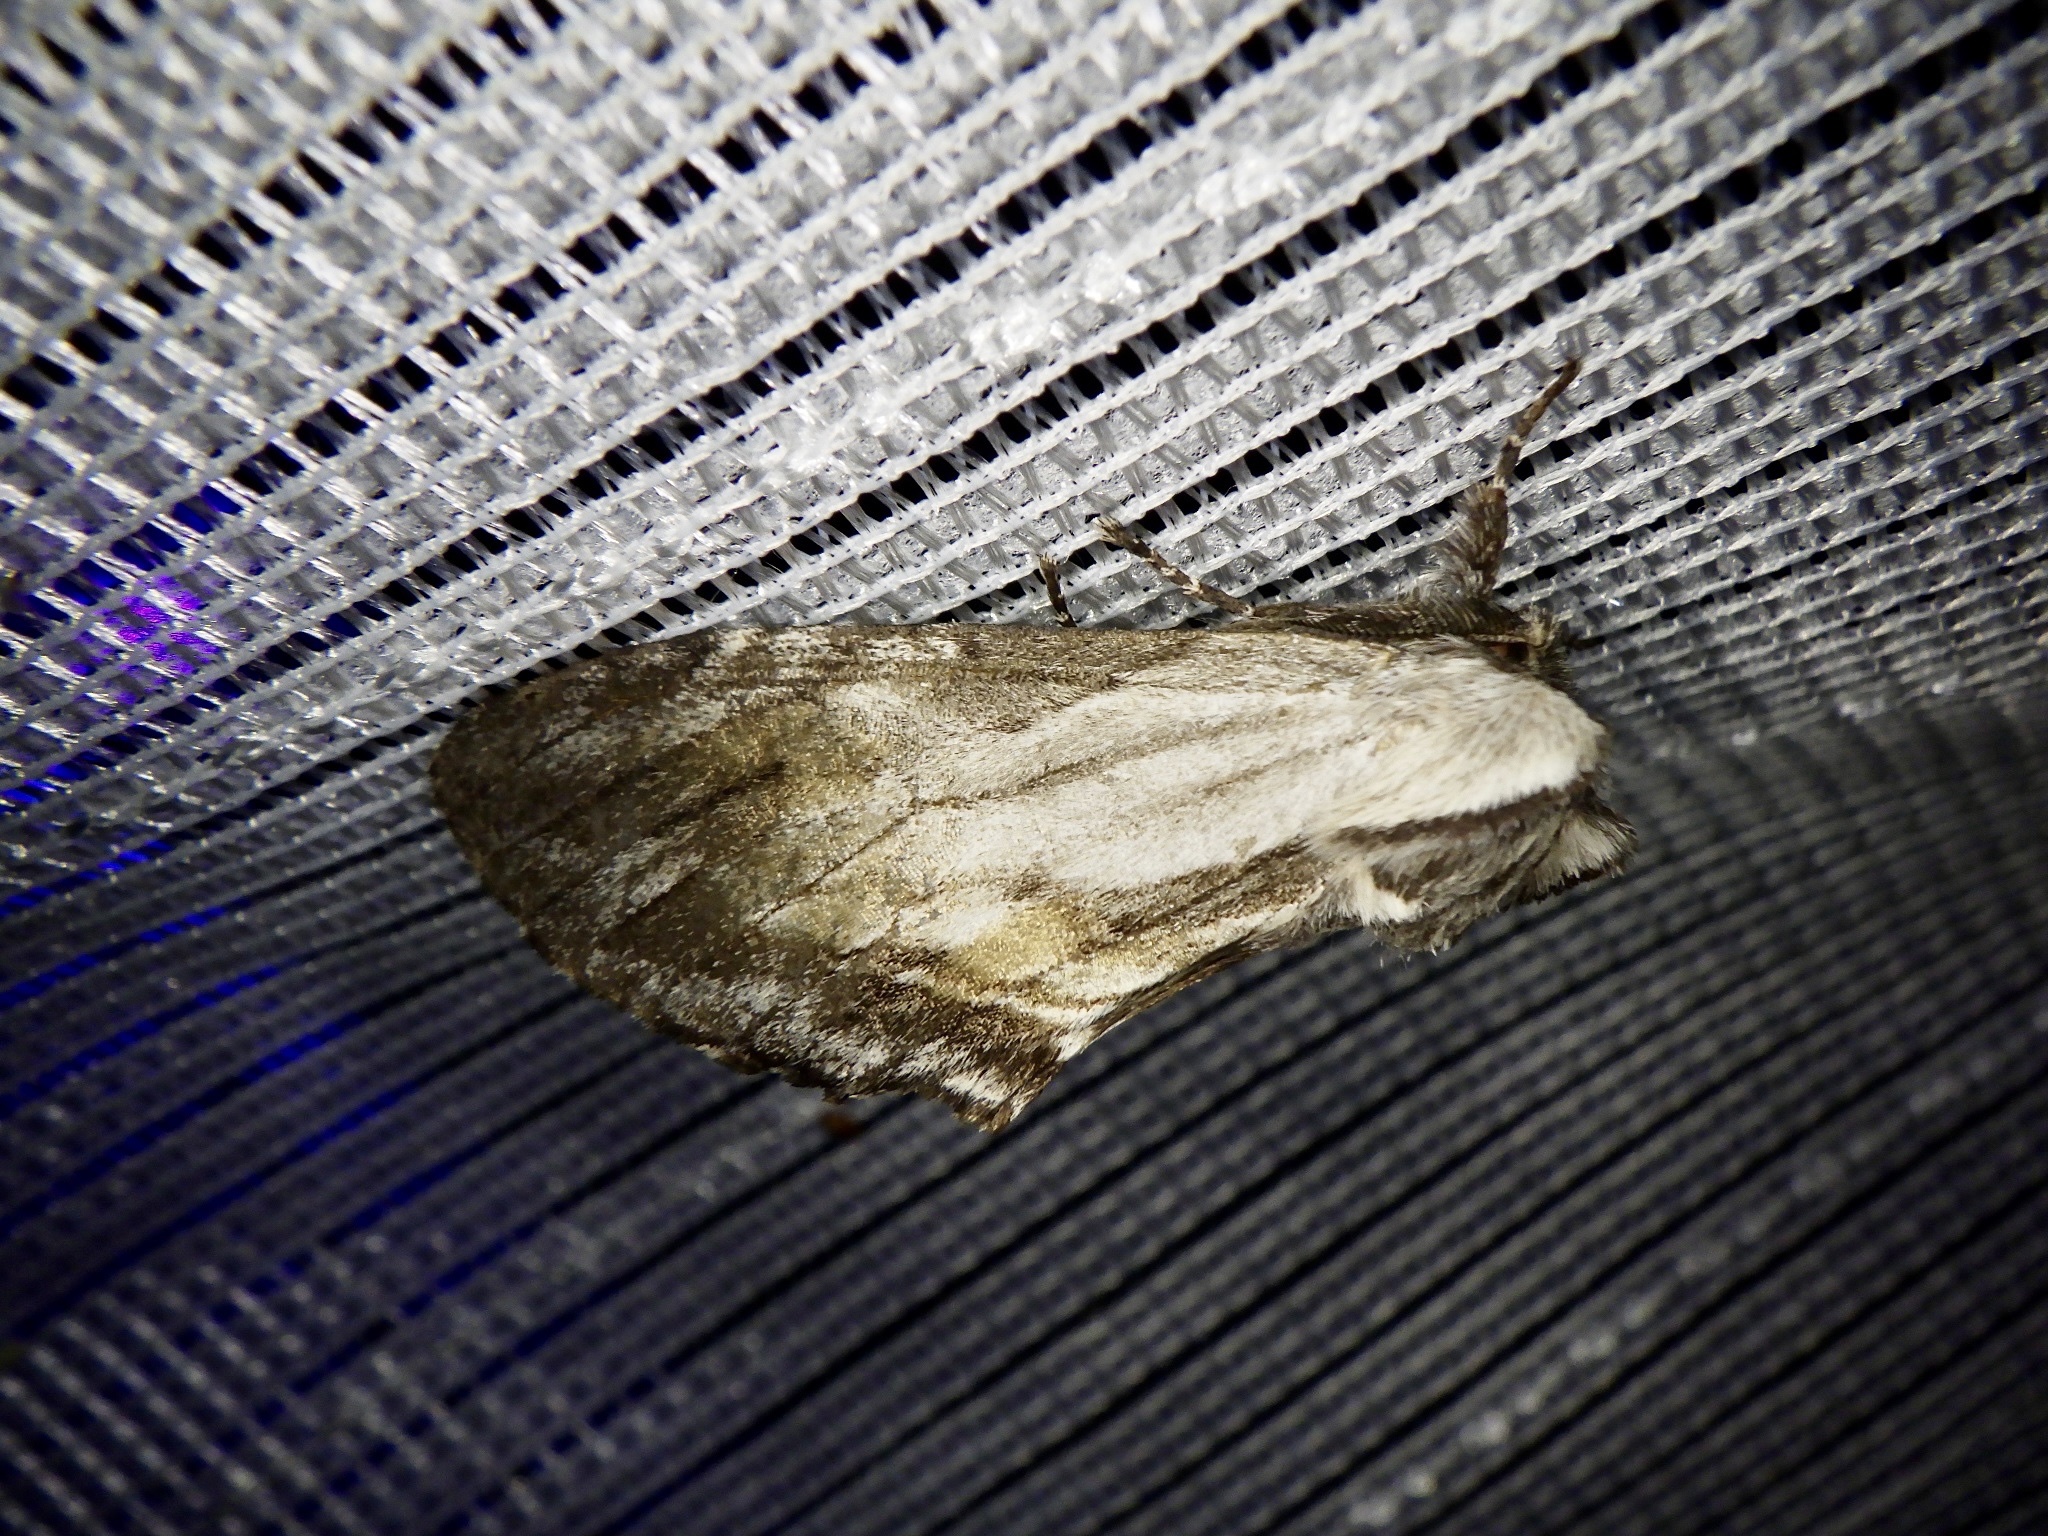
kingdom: Animalia
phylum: Arthropoda
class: Insecta
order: Lepidoptera
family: Notodontidae
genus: Harpyia
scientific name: Harpyia umbrosa
